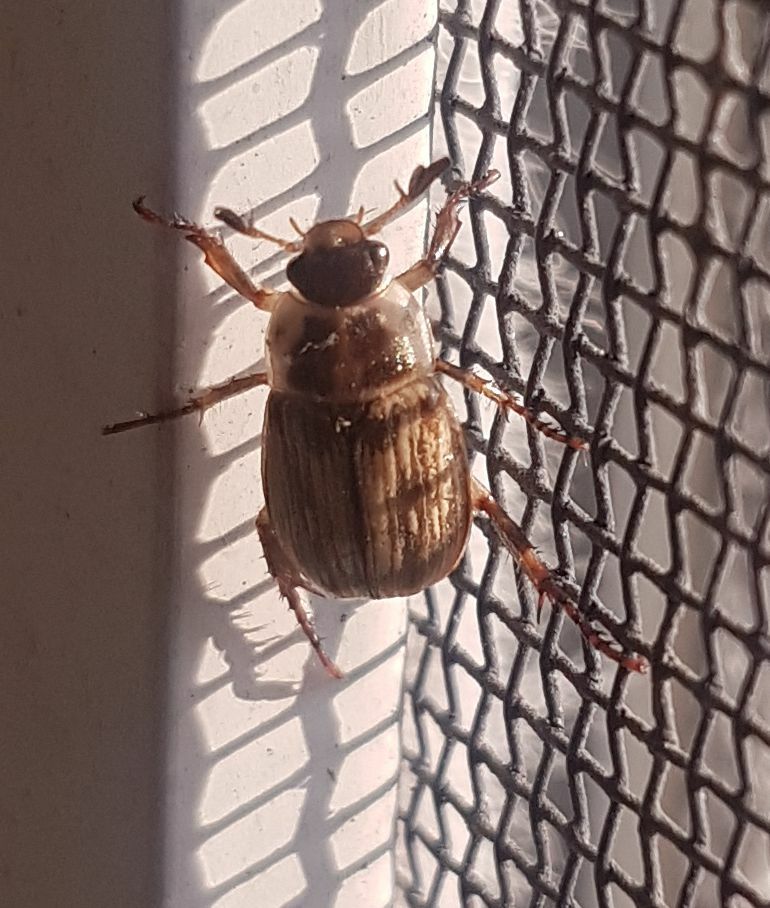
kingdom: Animalia
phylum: Arthropoda
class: Insecta
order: Coleoptera
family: Scarabaeidae
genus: Exomala
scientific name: Exomala orientalis
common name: Oriental beetle
